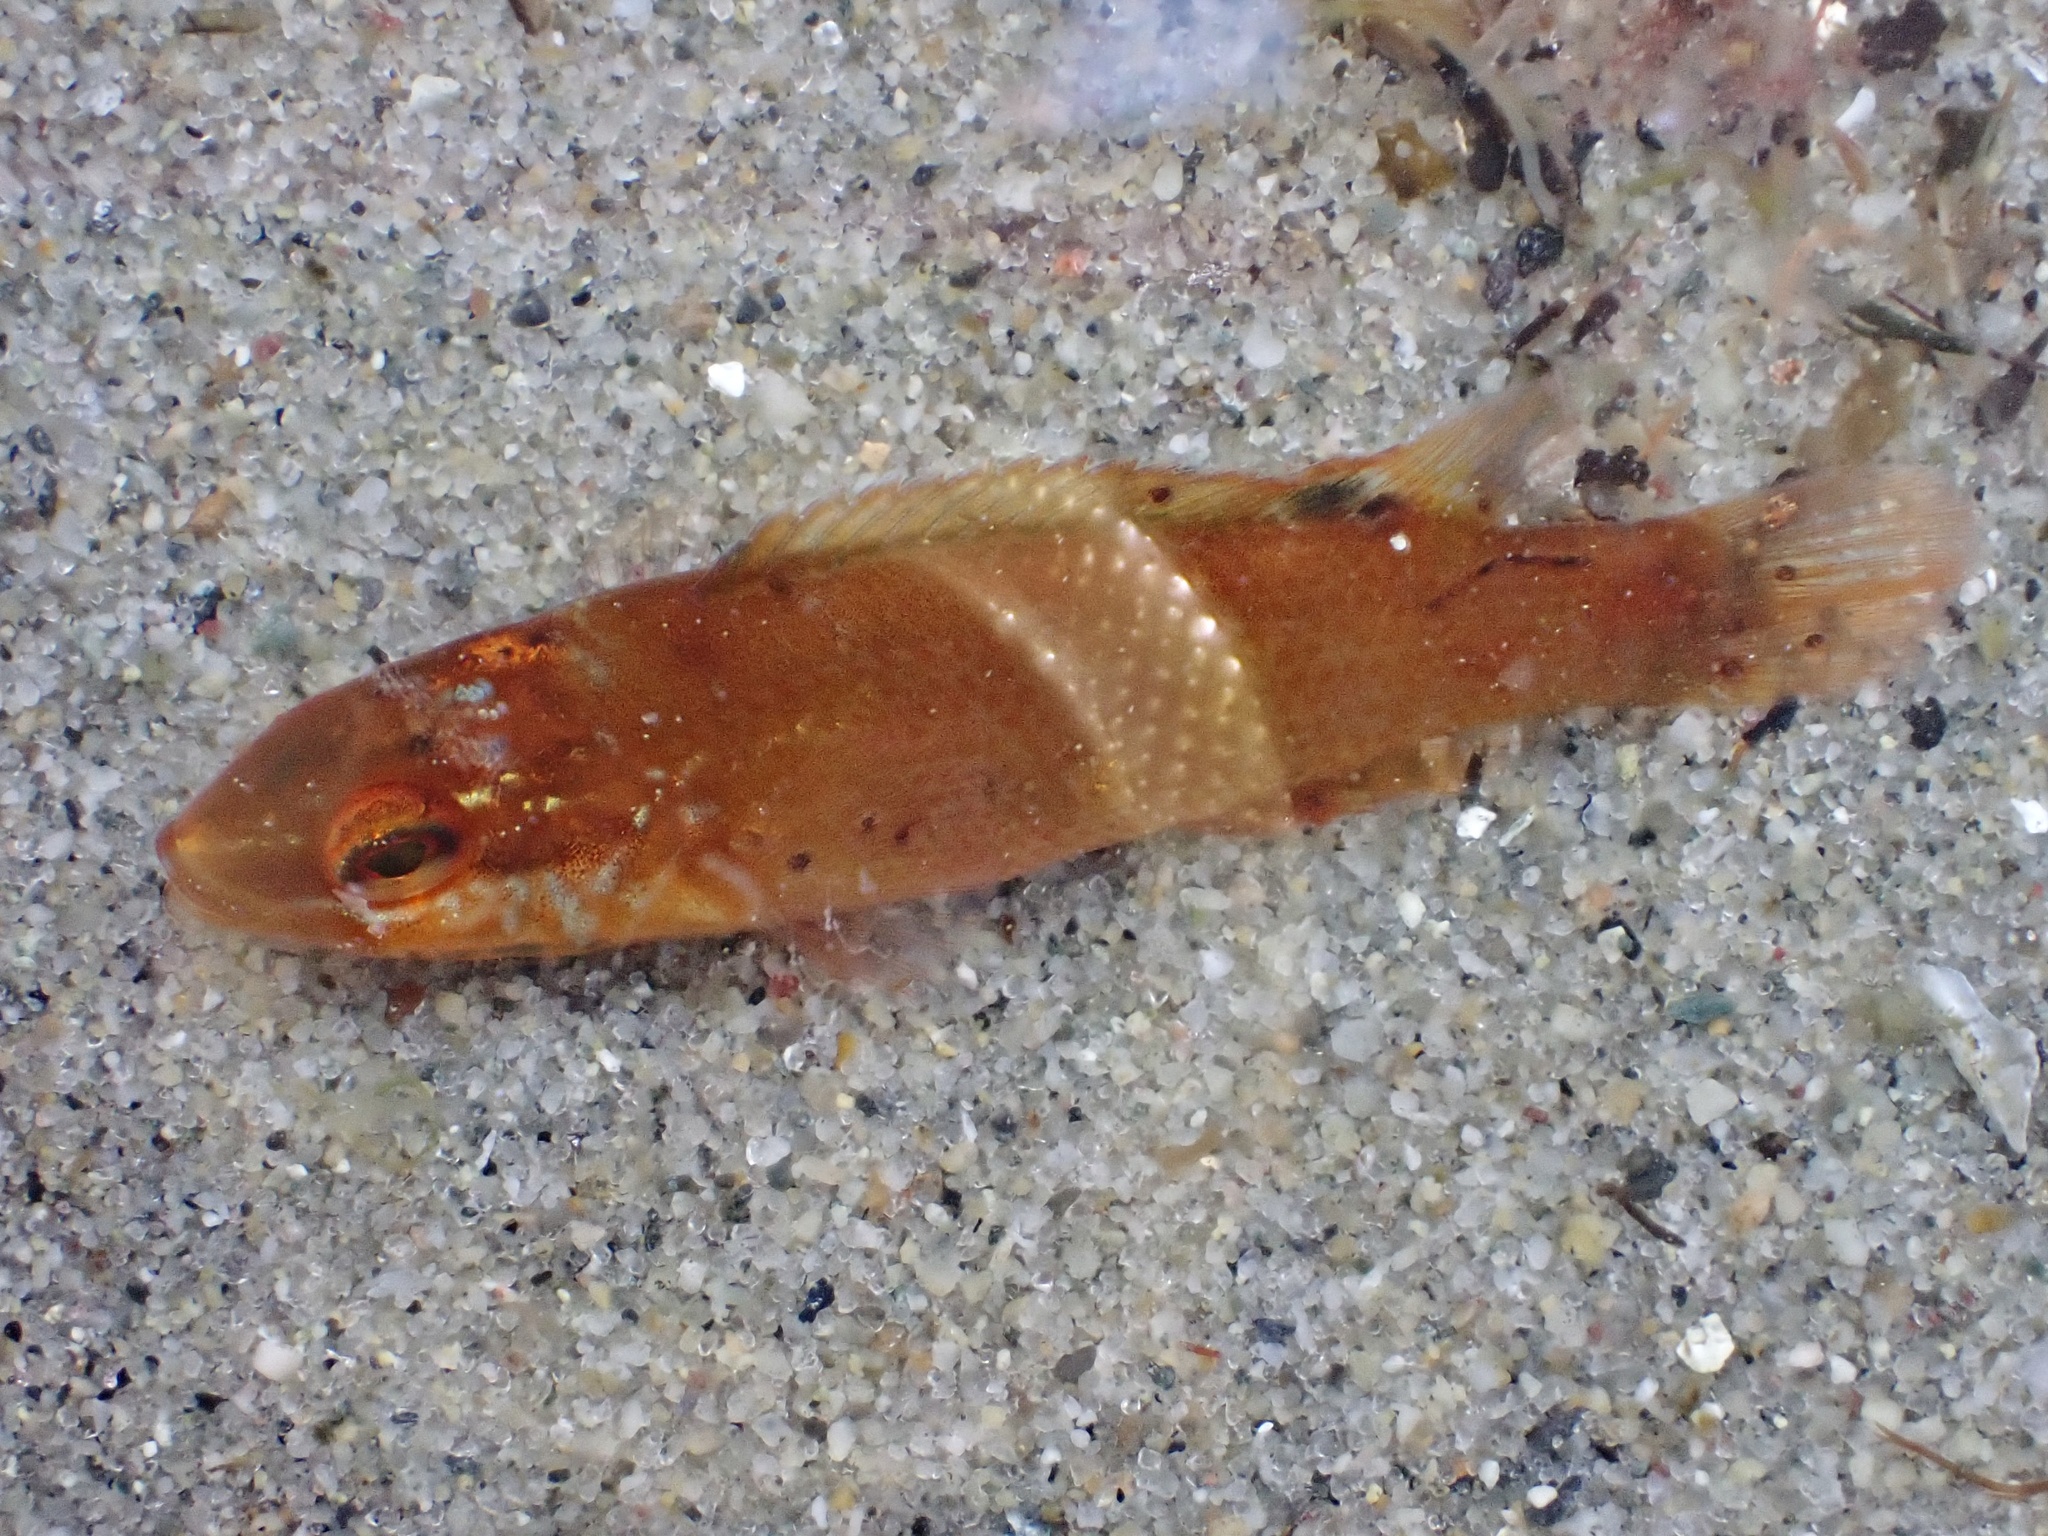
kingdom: Animalia
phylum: Chordata
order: Perciformes
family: Labridae
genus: Tautogolabrus
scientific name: Tautogolabrus adspersus
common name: Cunner
